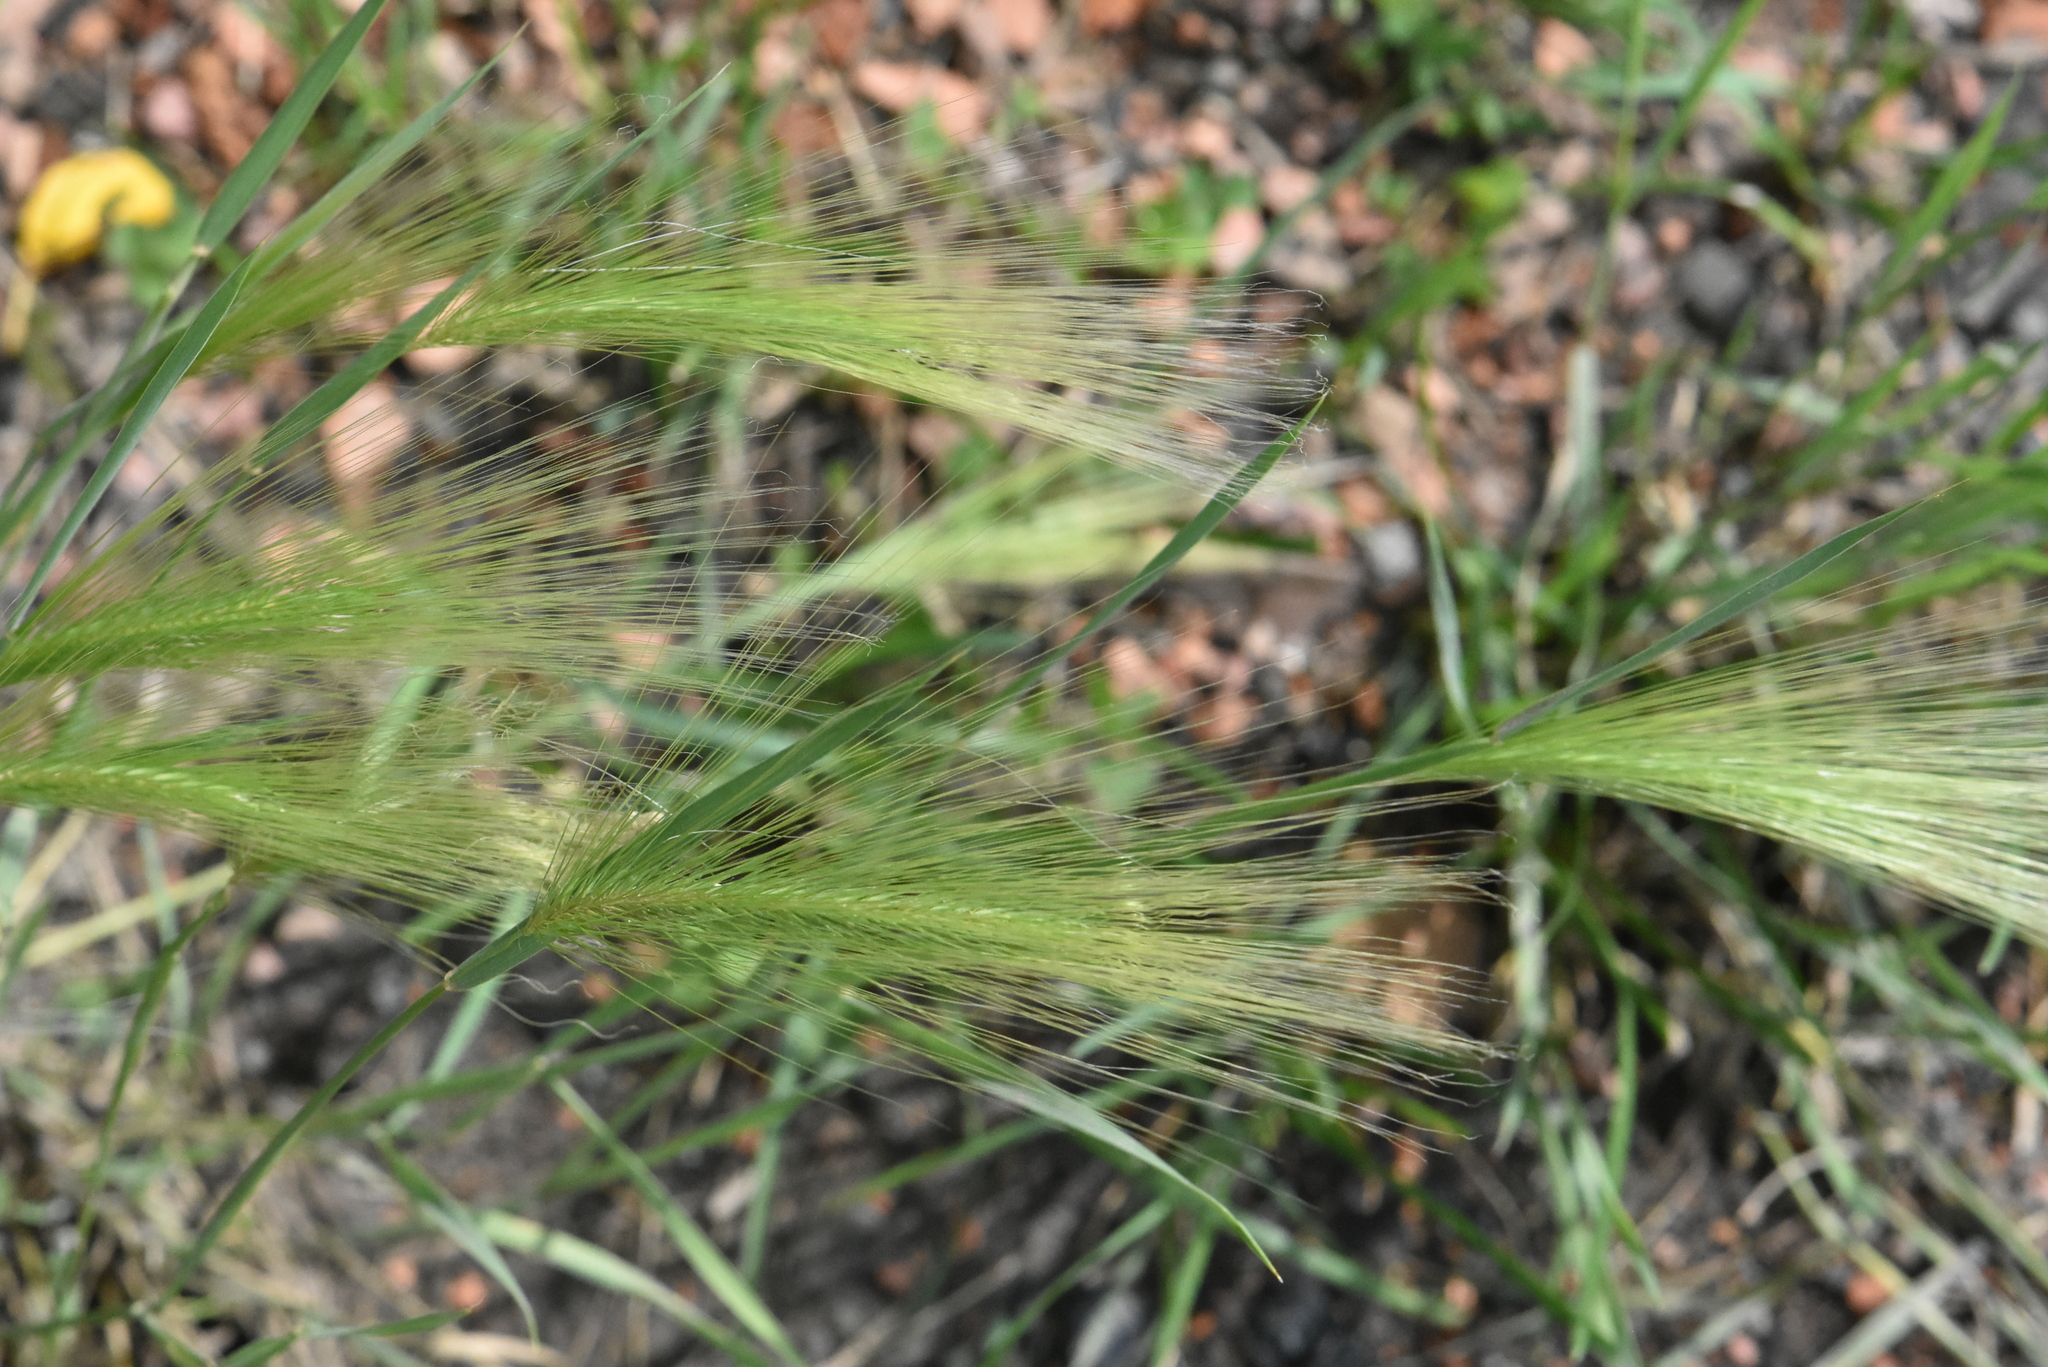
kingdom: Plantae
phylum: Tracheophyta
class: Liliopsida
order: Poales
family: Poaceae
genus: Hordeum
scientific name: Hordeum jubatum
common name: Foxtail barley
